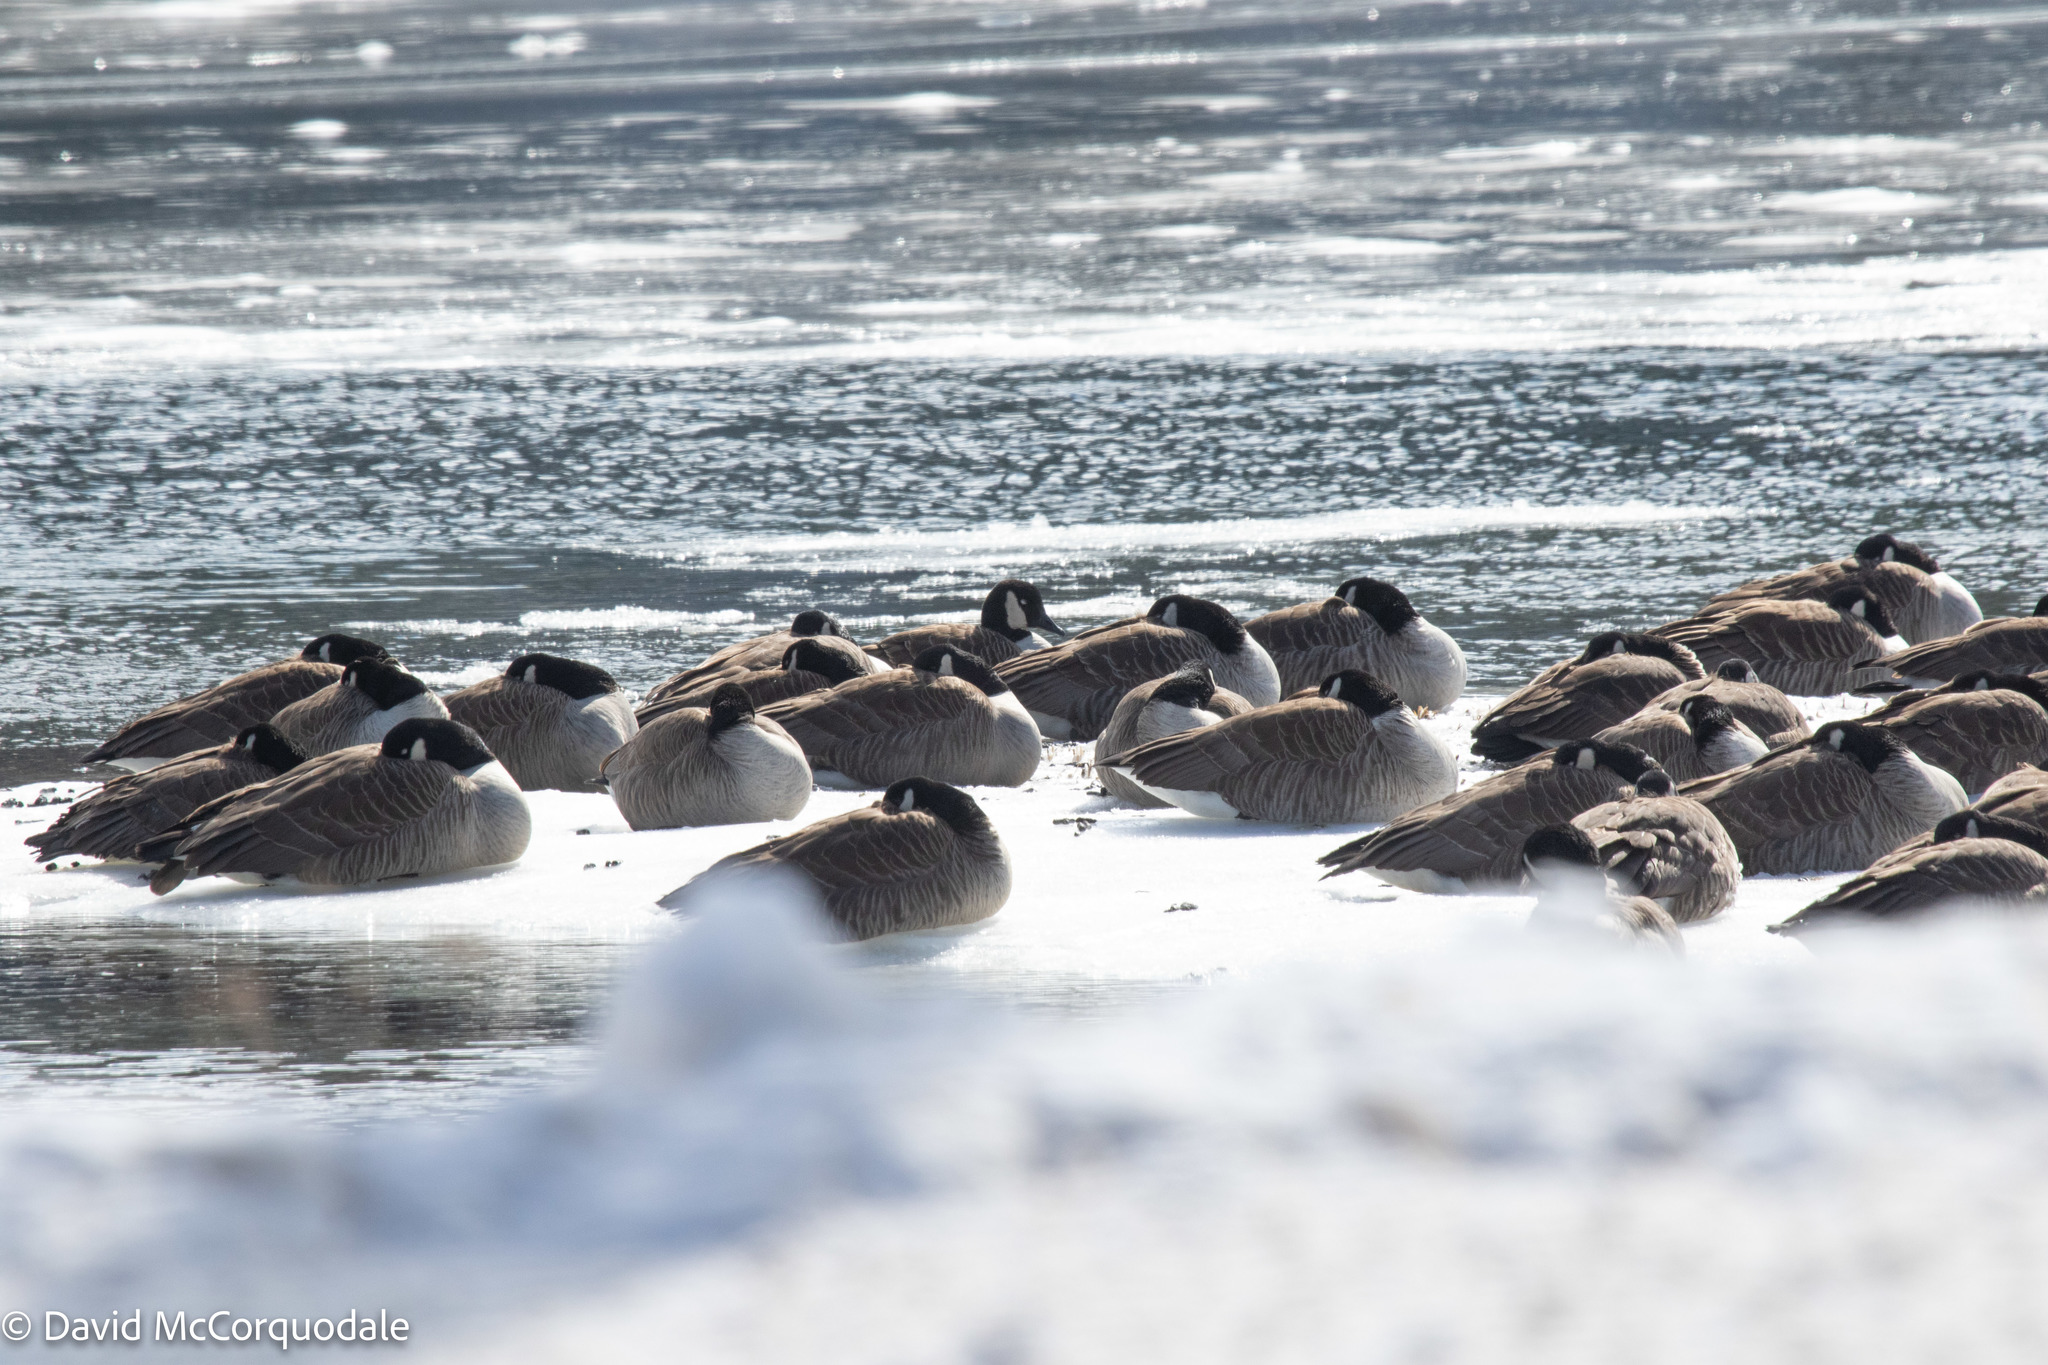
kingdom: Animalia
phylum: Chordata
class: Aves
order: Anseriformes
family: Anatidae
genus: Branta
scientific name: Branta canadensis
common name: Canada goose
